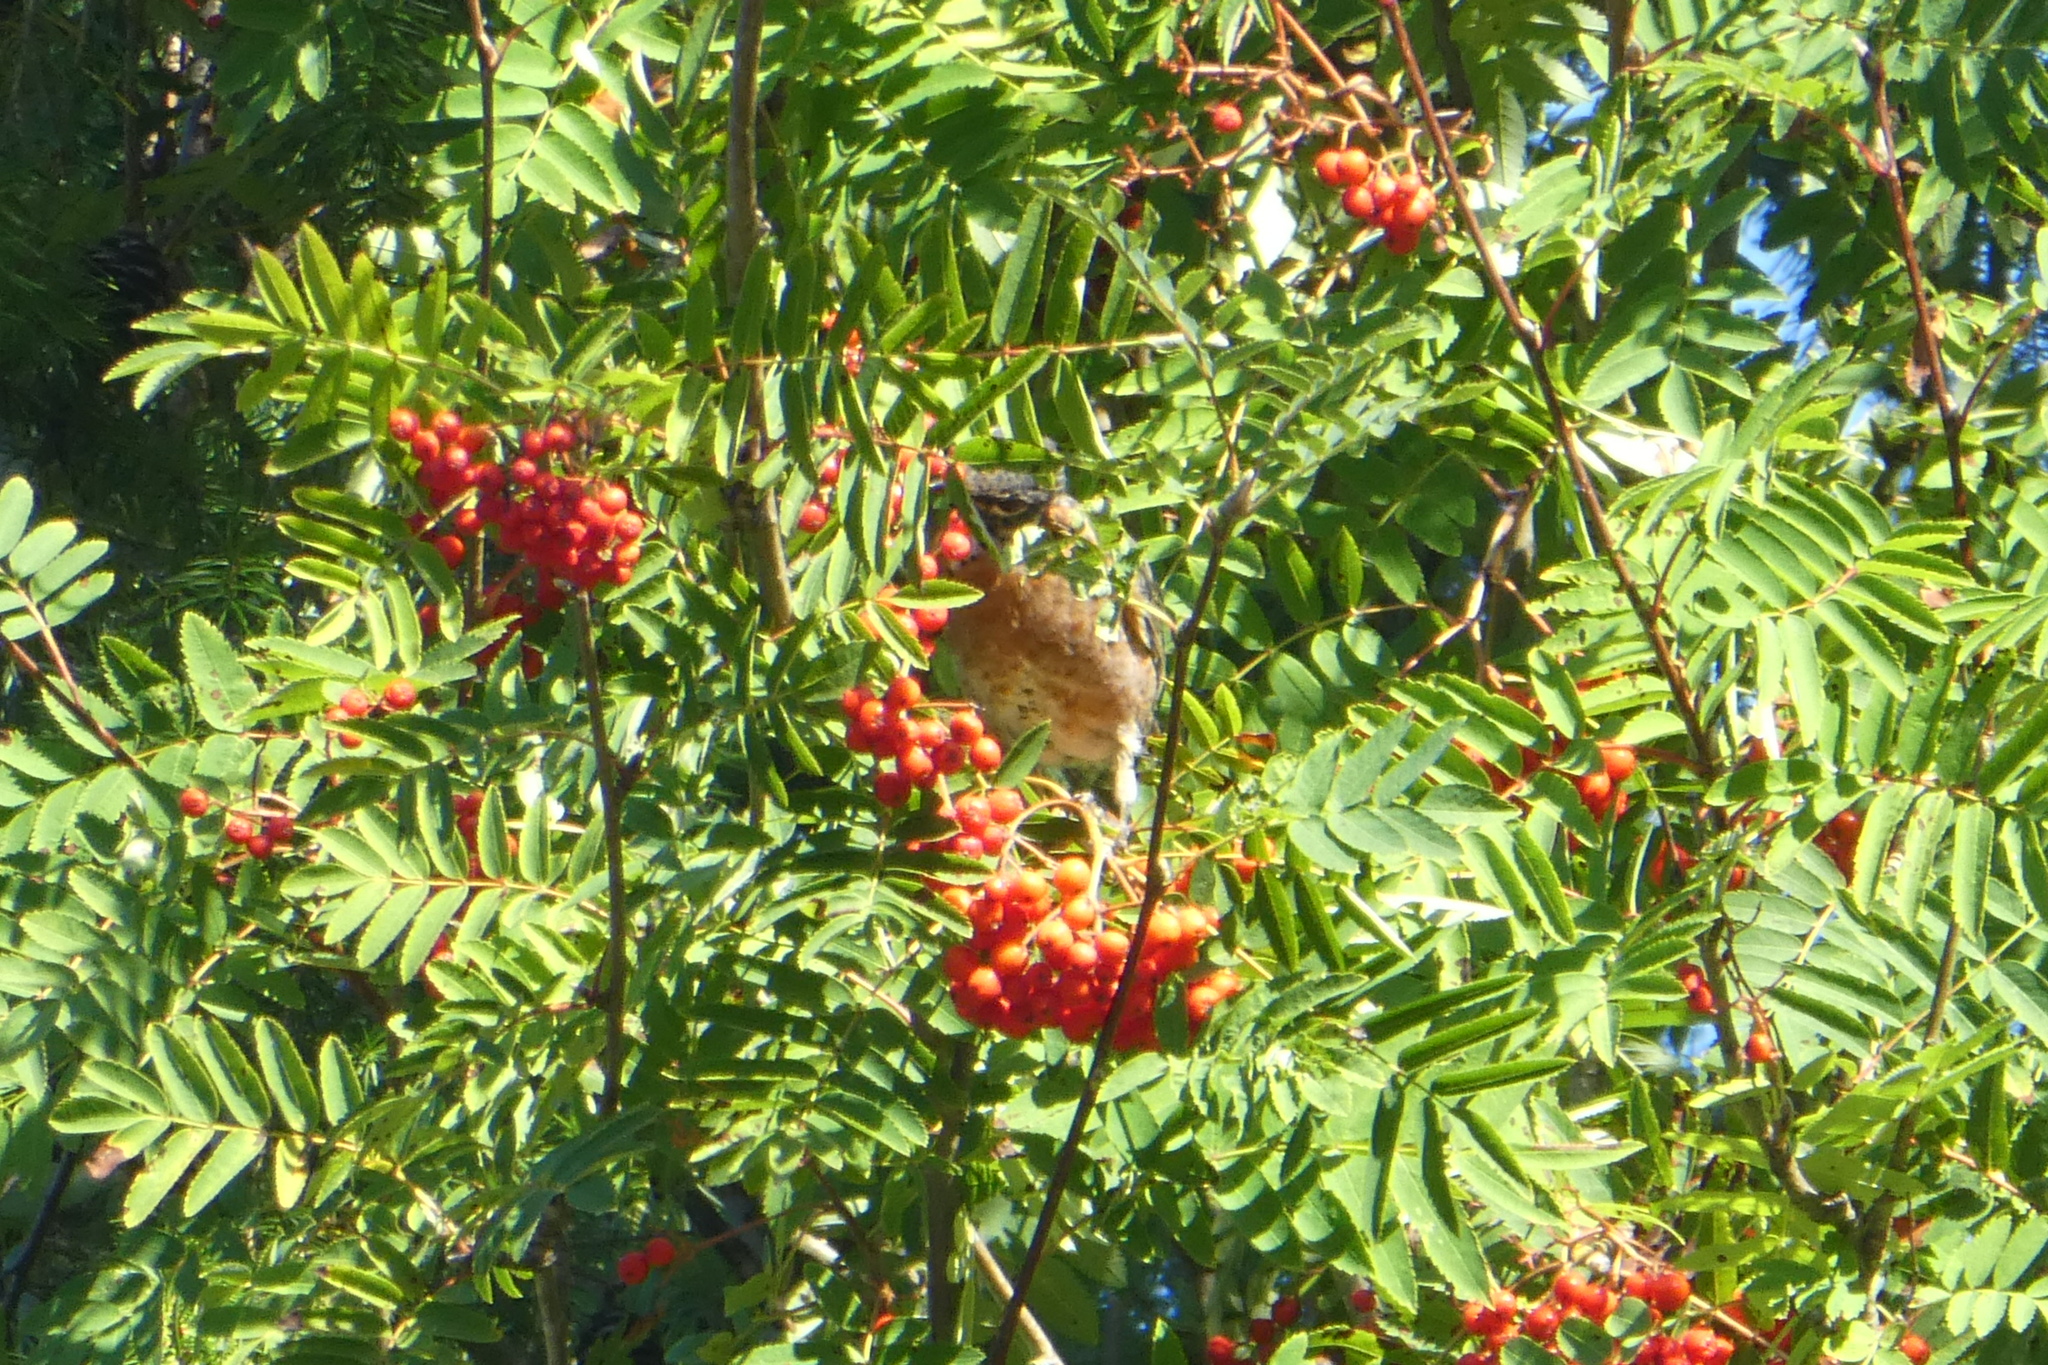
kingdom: Animalia
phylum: Chordata
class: Aves
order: Passeriformes
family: Turdidae
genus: Turdus
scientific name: Turdus migratorius
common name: American robin
